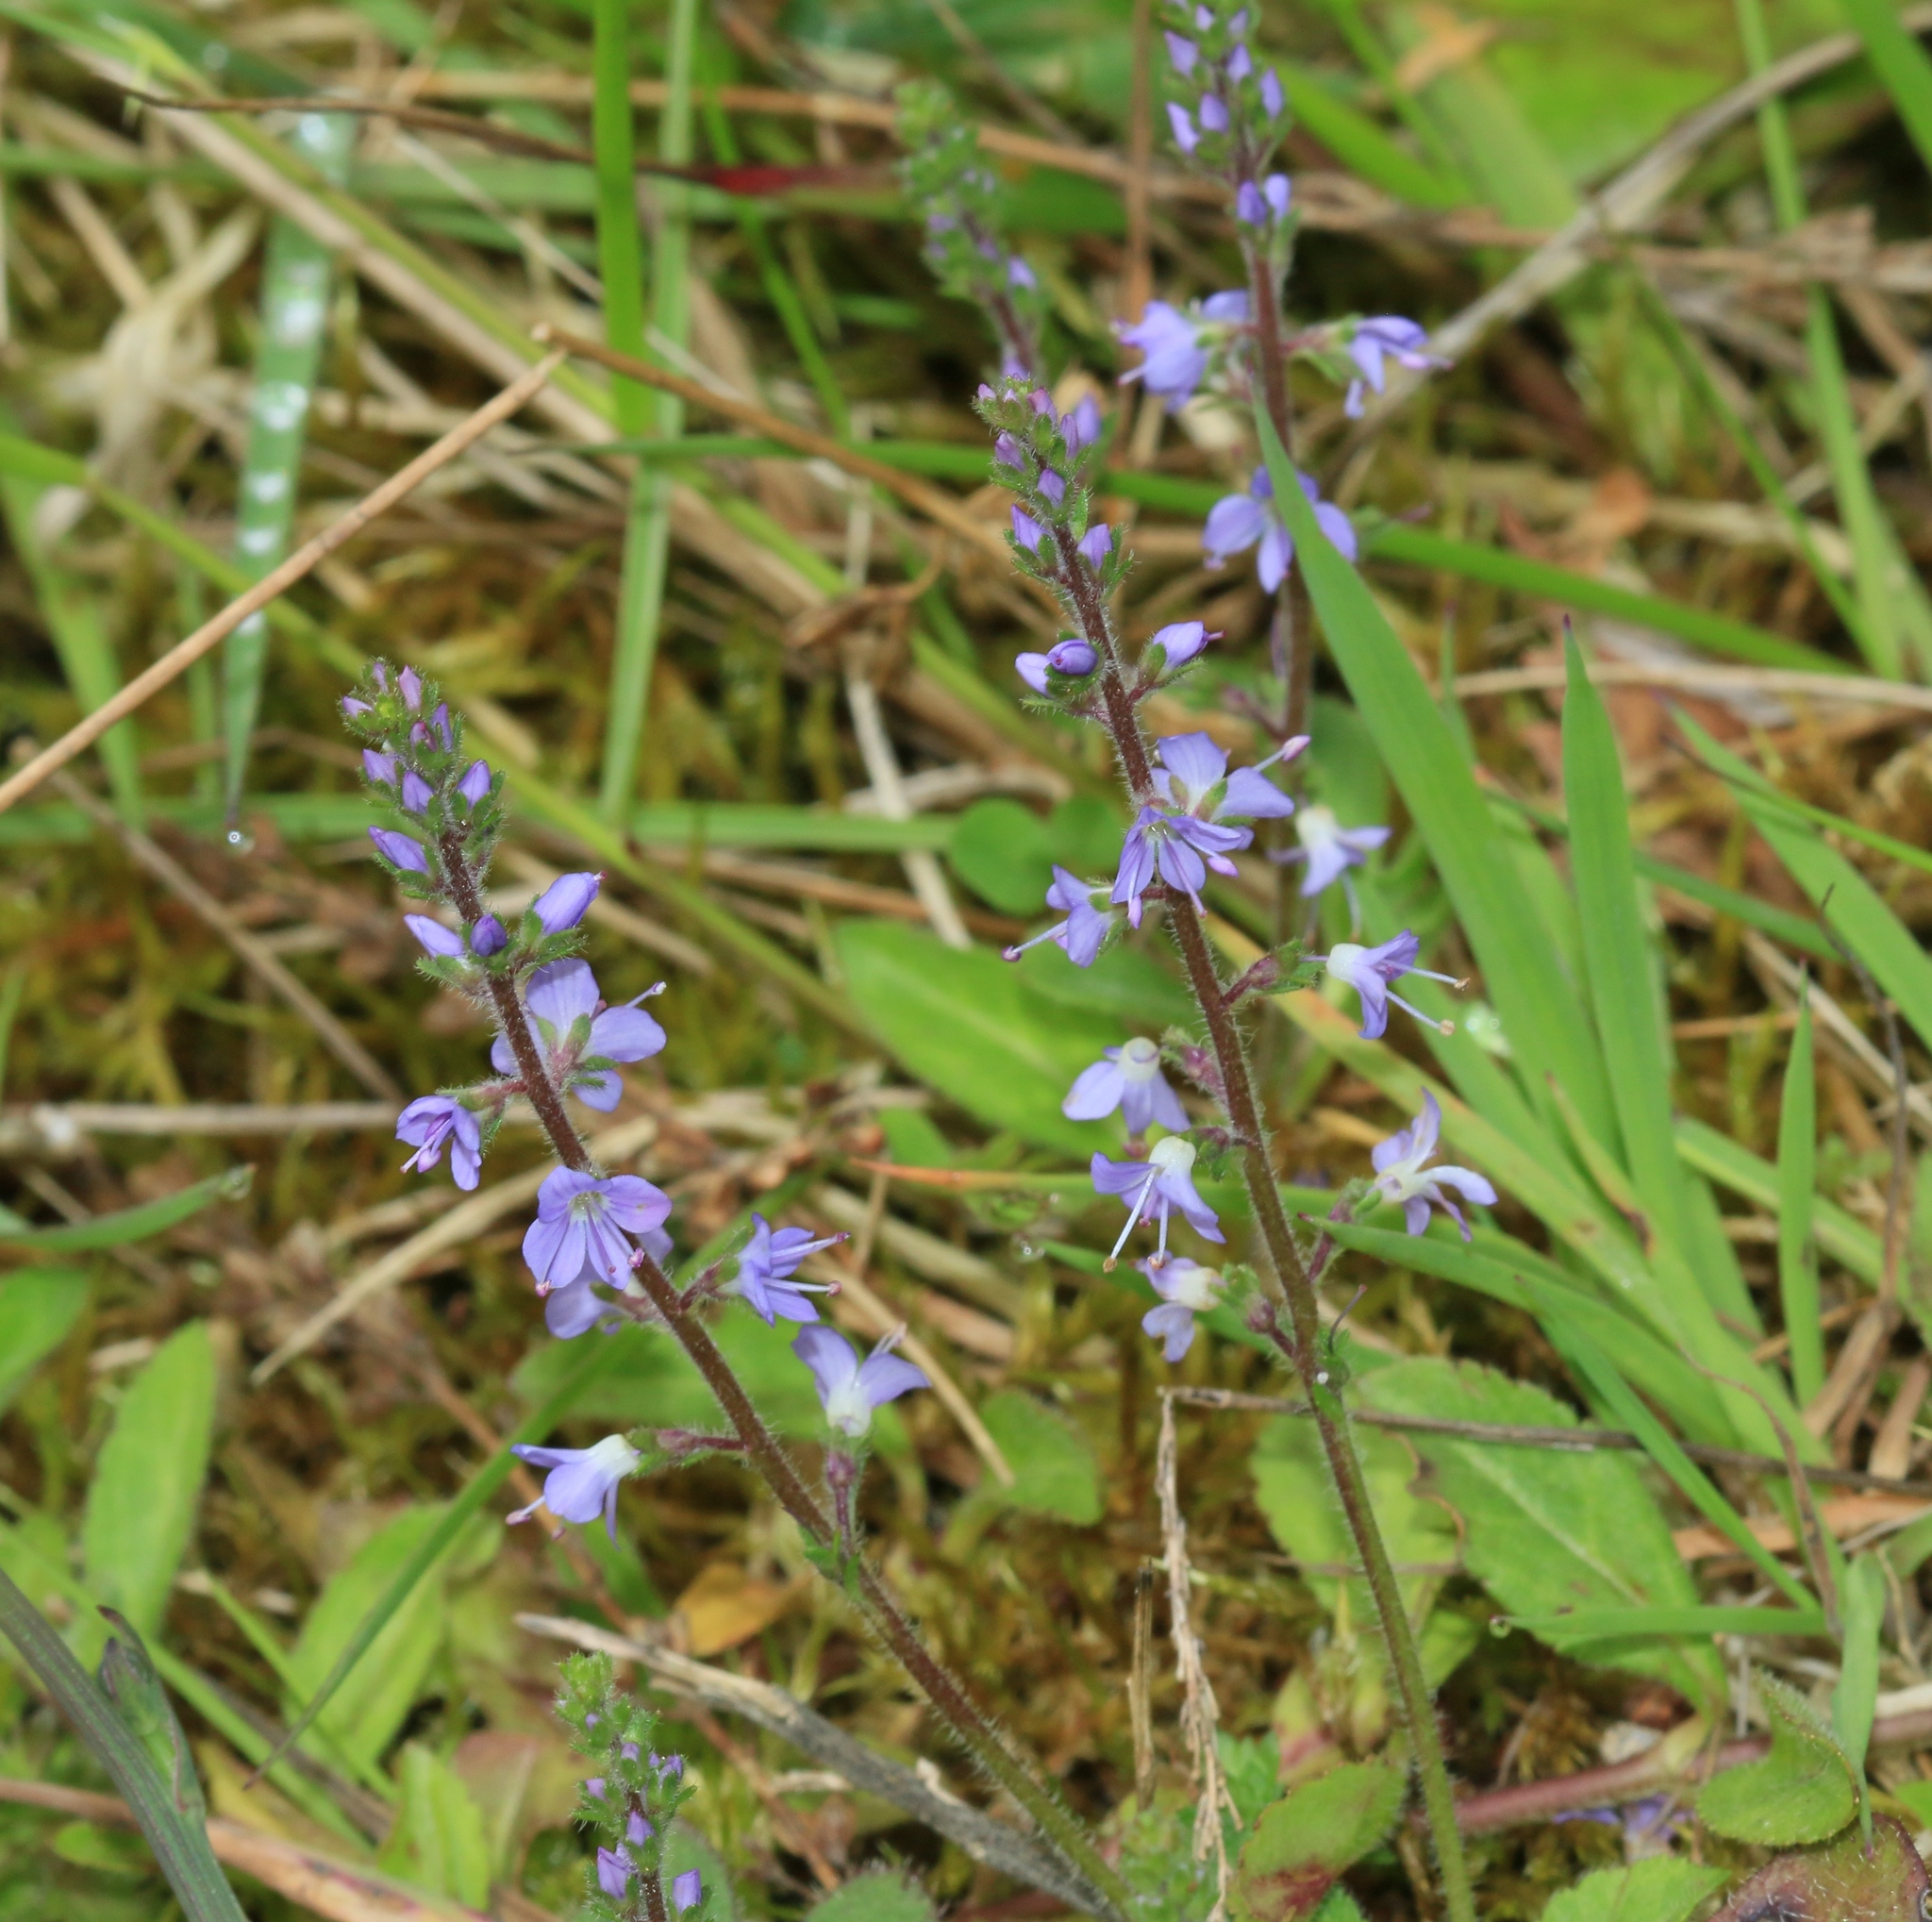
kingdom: Plantae
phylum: Tracheophyta
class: Magnoliopsida
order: Lamiales
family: Plantaginaceae
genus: Veronica
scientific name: Veronica officinalis
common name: Common speedwell
